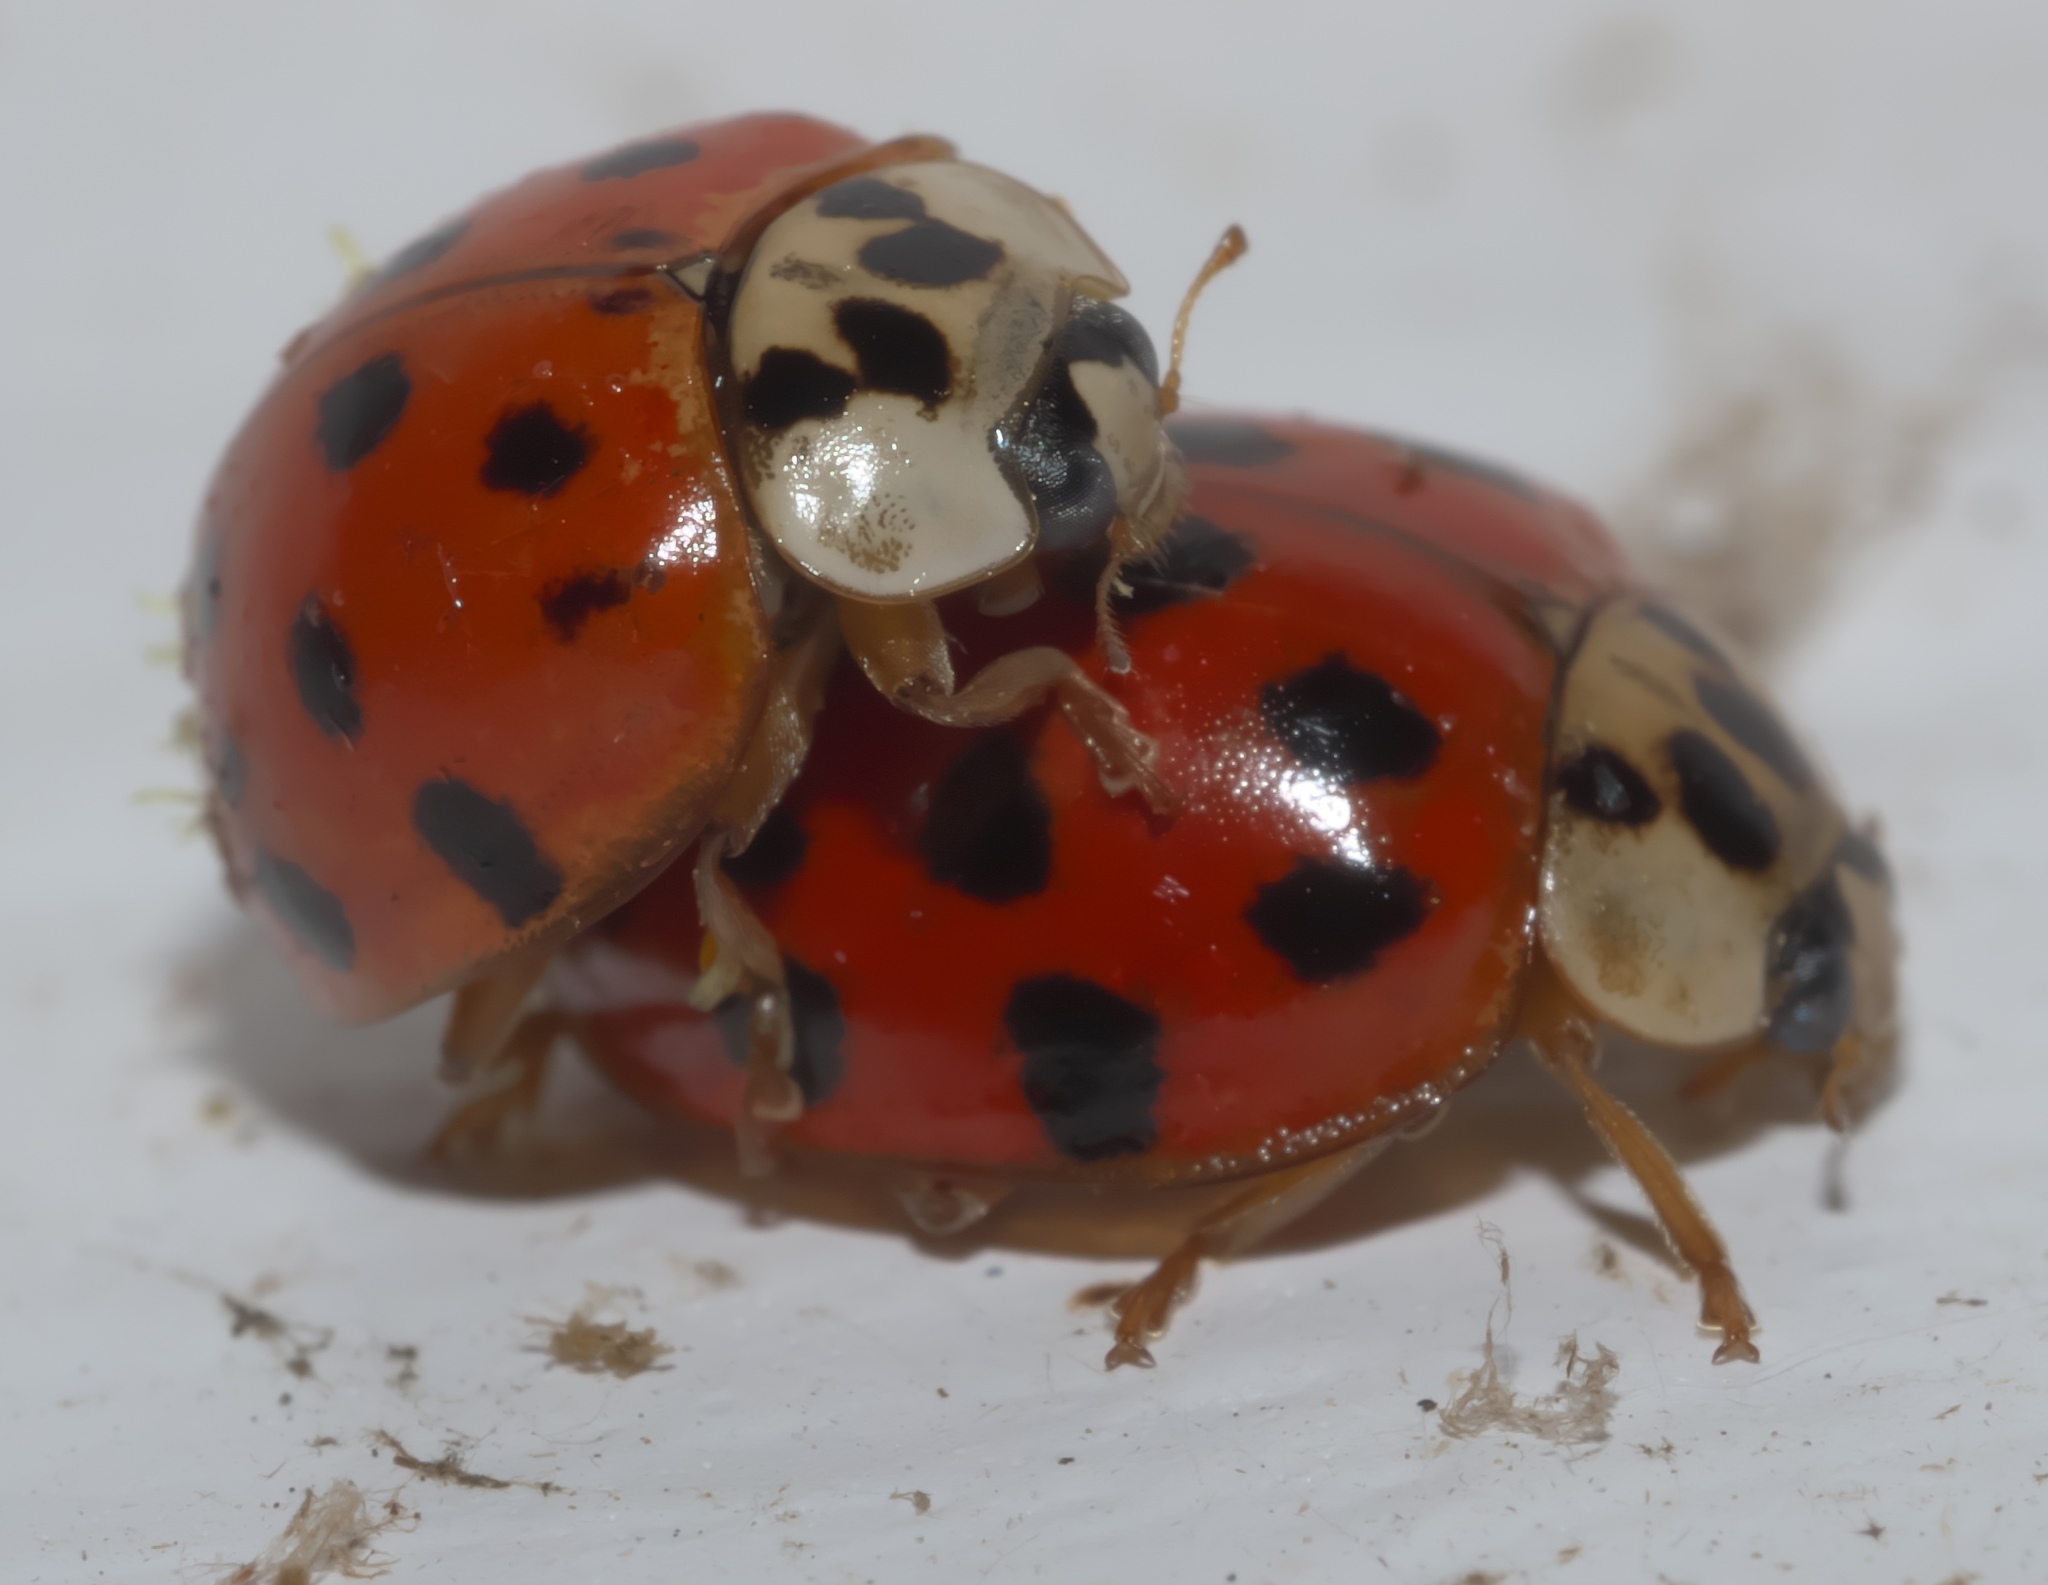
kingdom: Animalia
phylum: Arthropoda
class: Insecta
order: Coleoptera
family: Coccinellidae
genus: Harmonia
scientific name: Harmonia axyridis
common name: Harlequin ladybird
